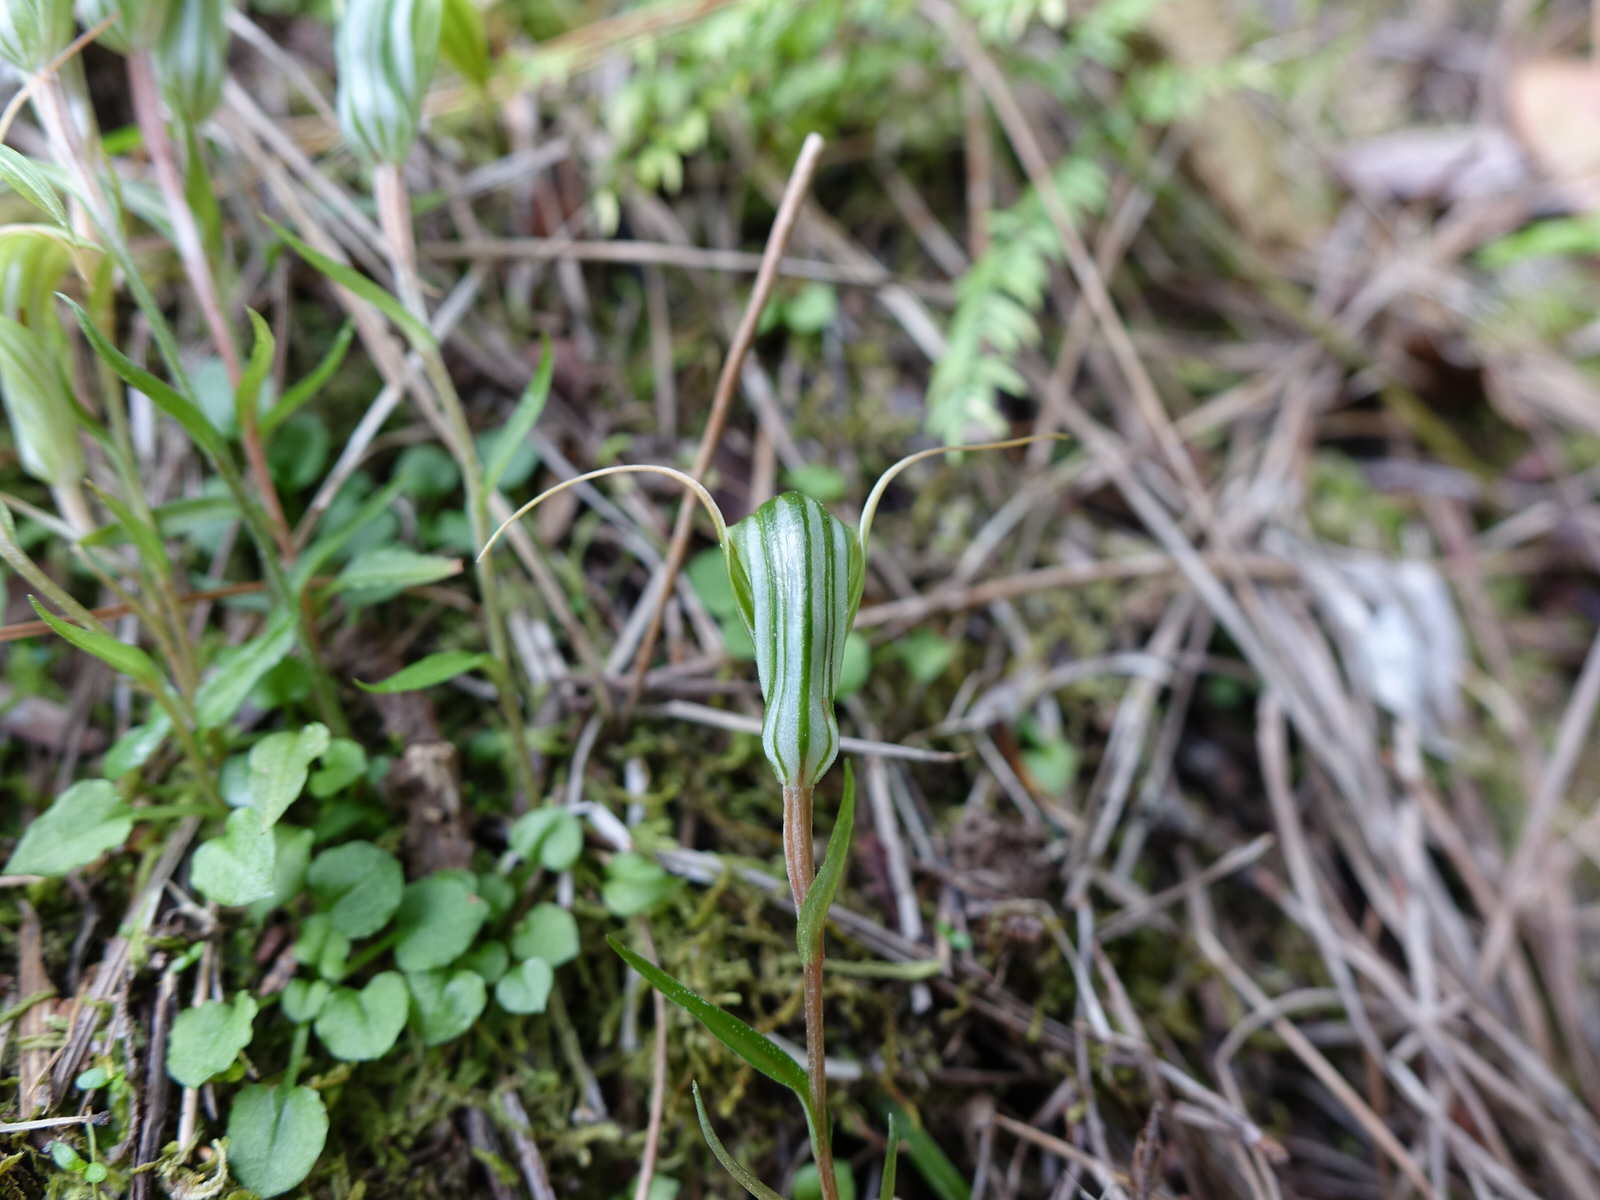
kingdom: Plantae
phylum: Tracheophyta
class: Liliopsida
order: Asparagales
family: Orchidaceae
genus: Pterostylis
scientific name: Pterostylis alobula
